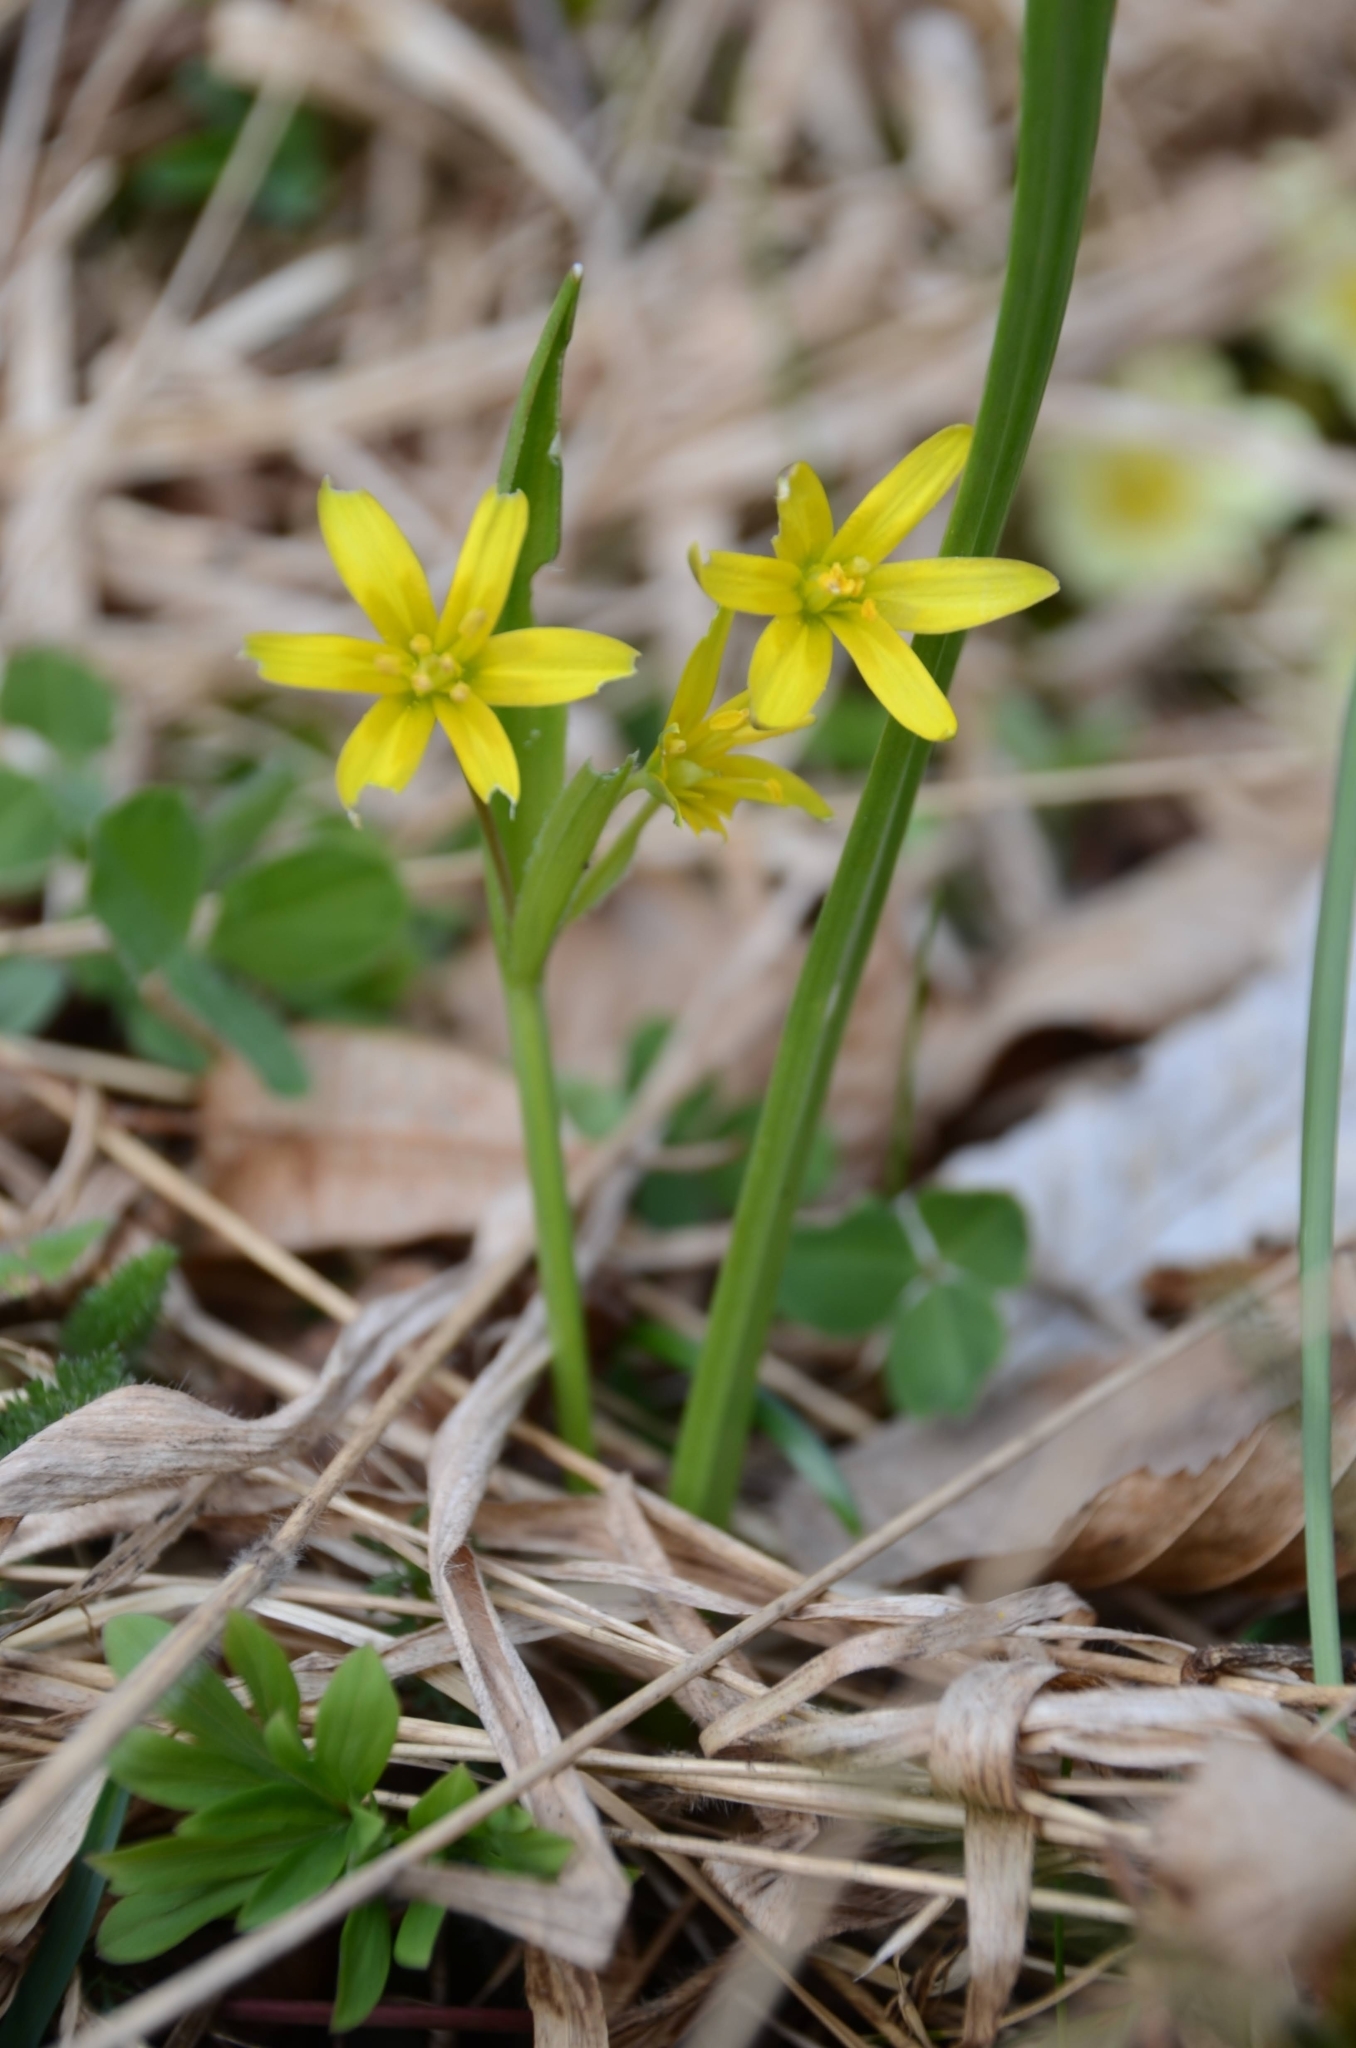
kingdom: Plantae
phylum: Tracheophyta
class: Liliopsida
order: Liliales
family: Liliaceae
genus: Gagea
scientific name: Gagea lutea
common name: Yellow star-of-bethlehem
